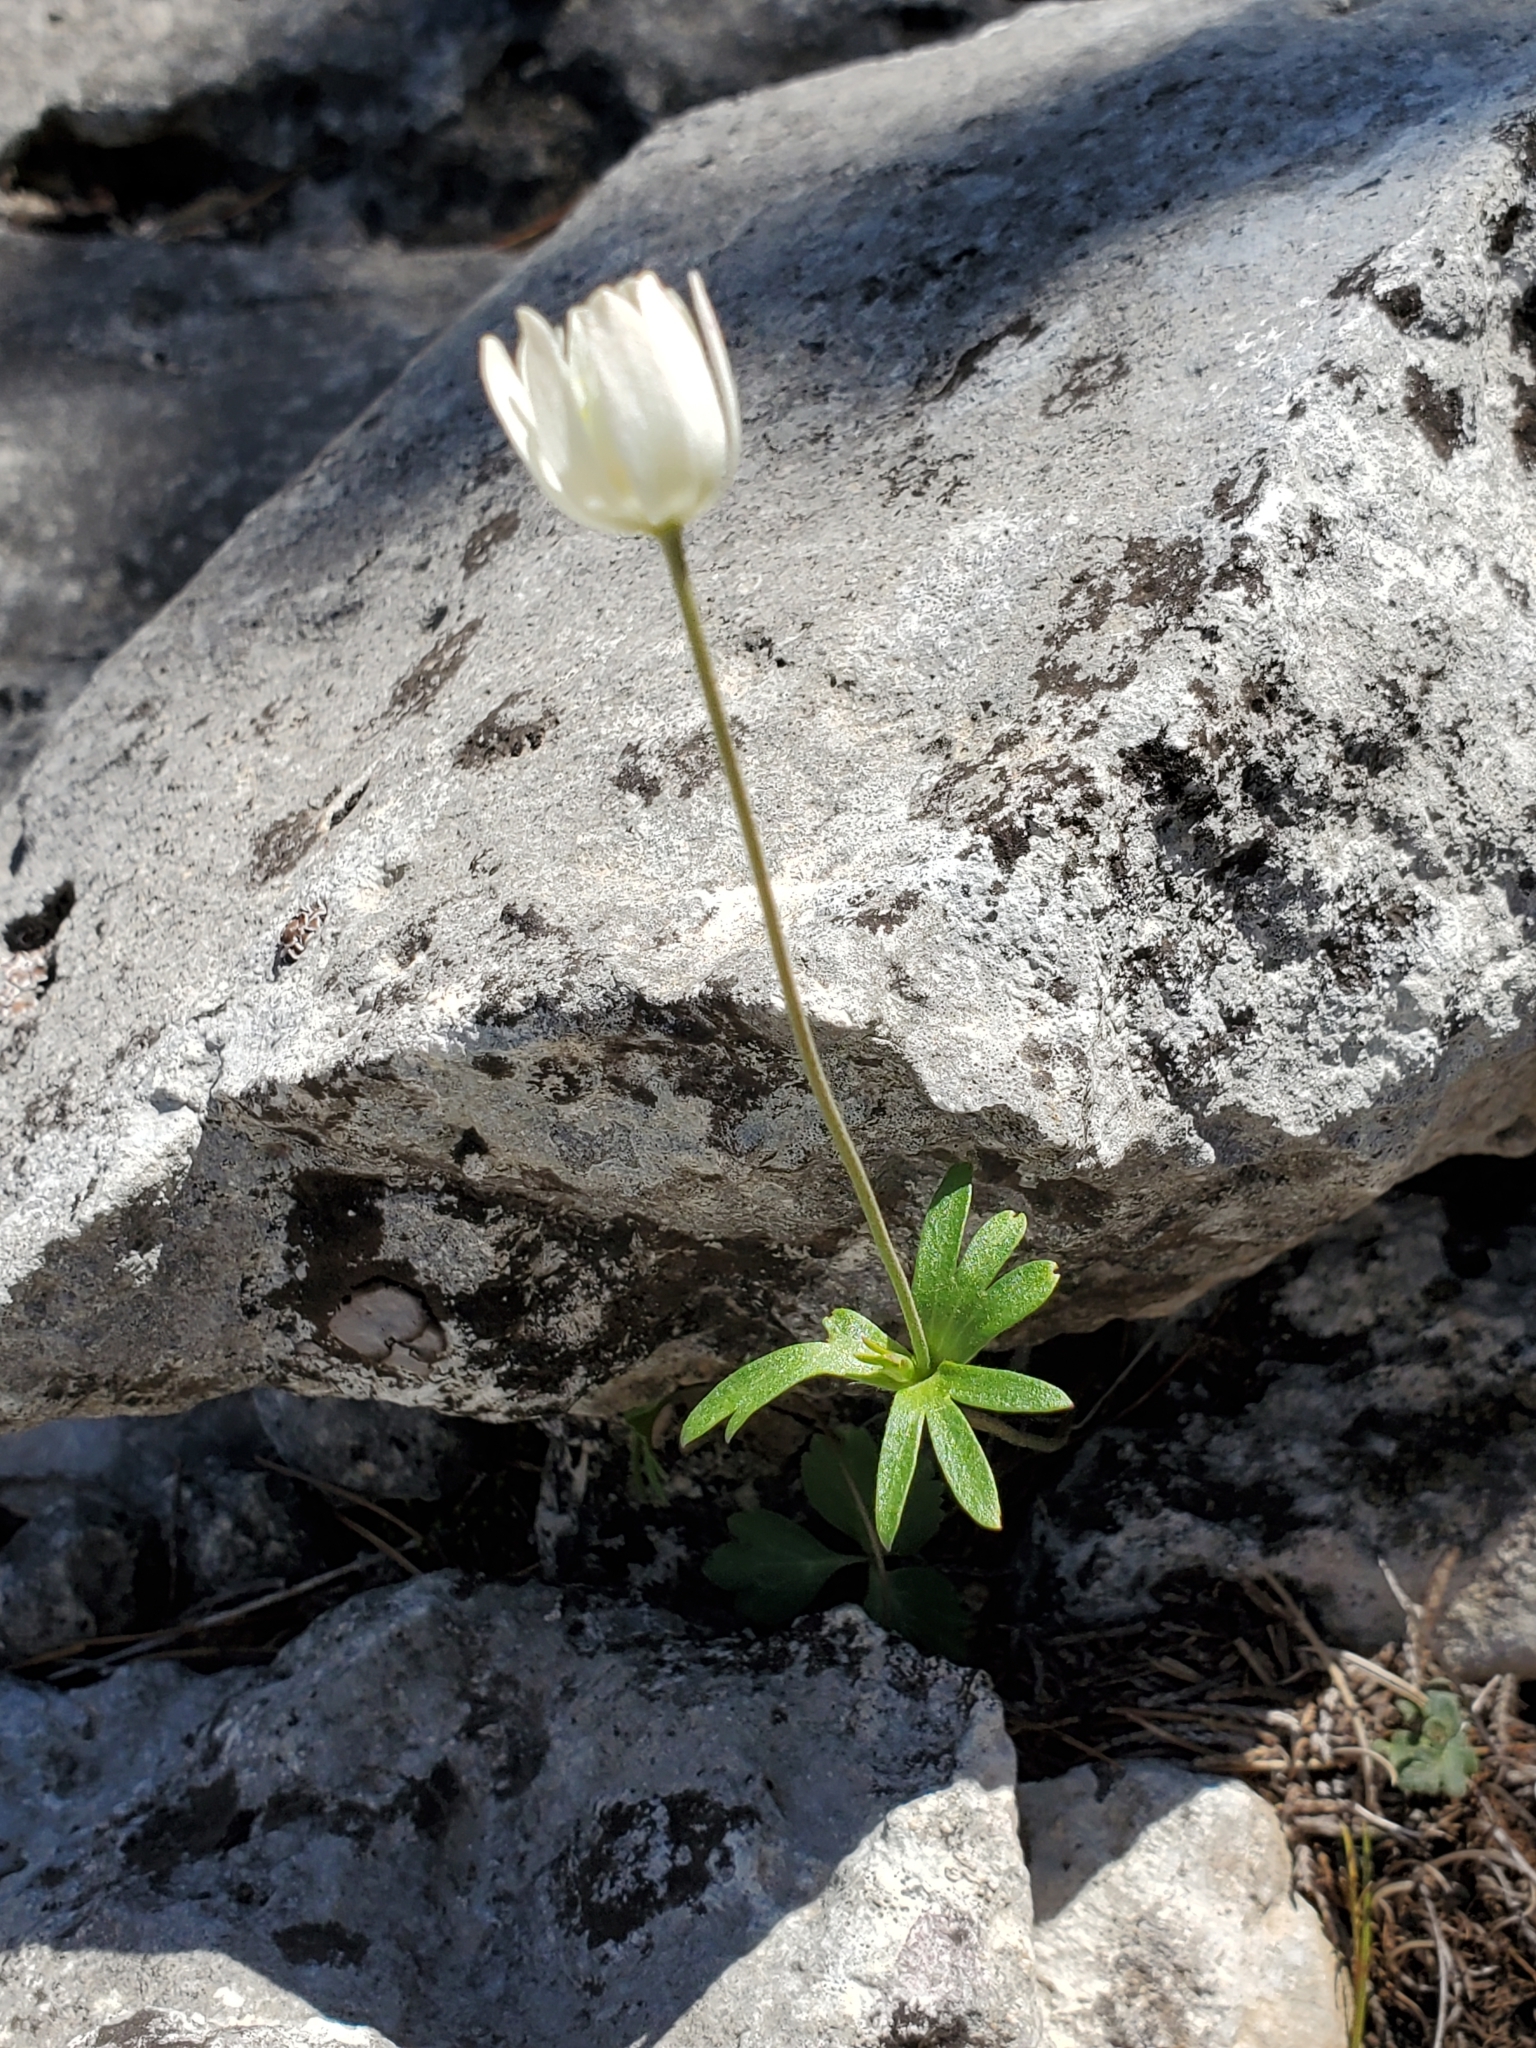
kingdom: Plantae
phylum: Tracheophyta
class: Magnoliopsida
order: Ranunculales
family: Ranunculaceae
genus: Anemone
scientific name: Anemone edwardsiana
